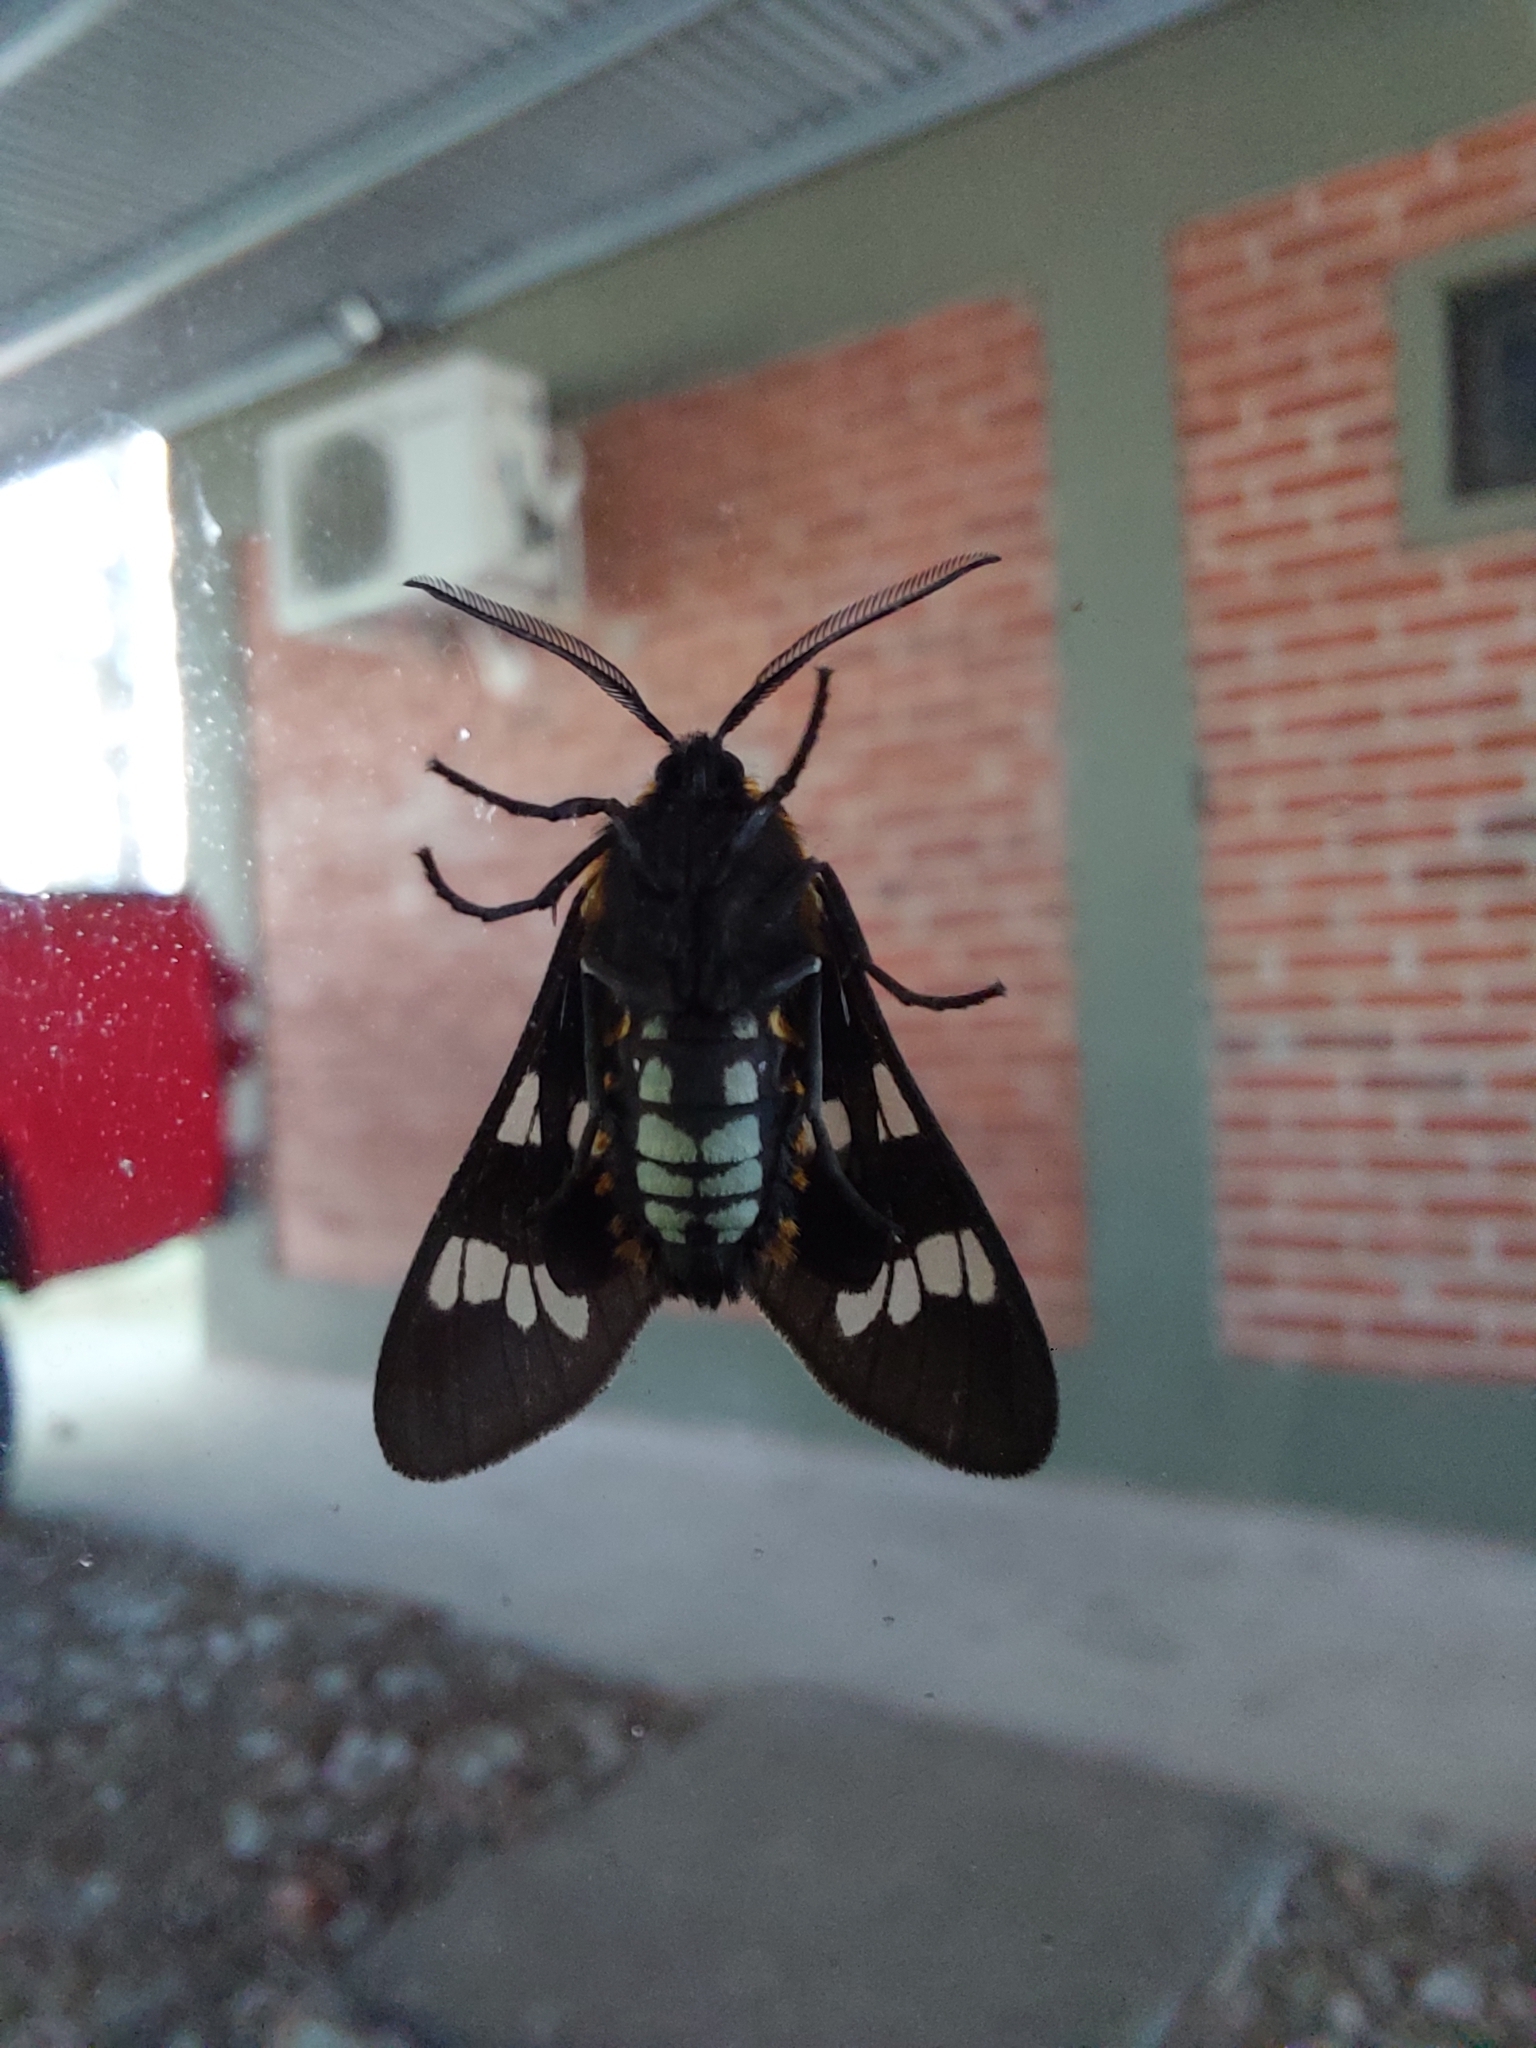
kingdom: Animalia
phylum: Arthropoda
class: Insecta
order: Lepidoptera
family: Erebidae
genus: Eurata
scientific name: Eurata
